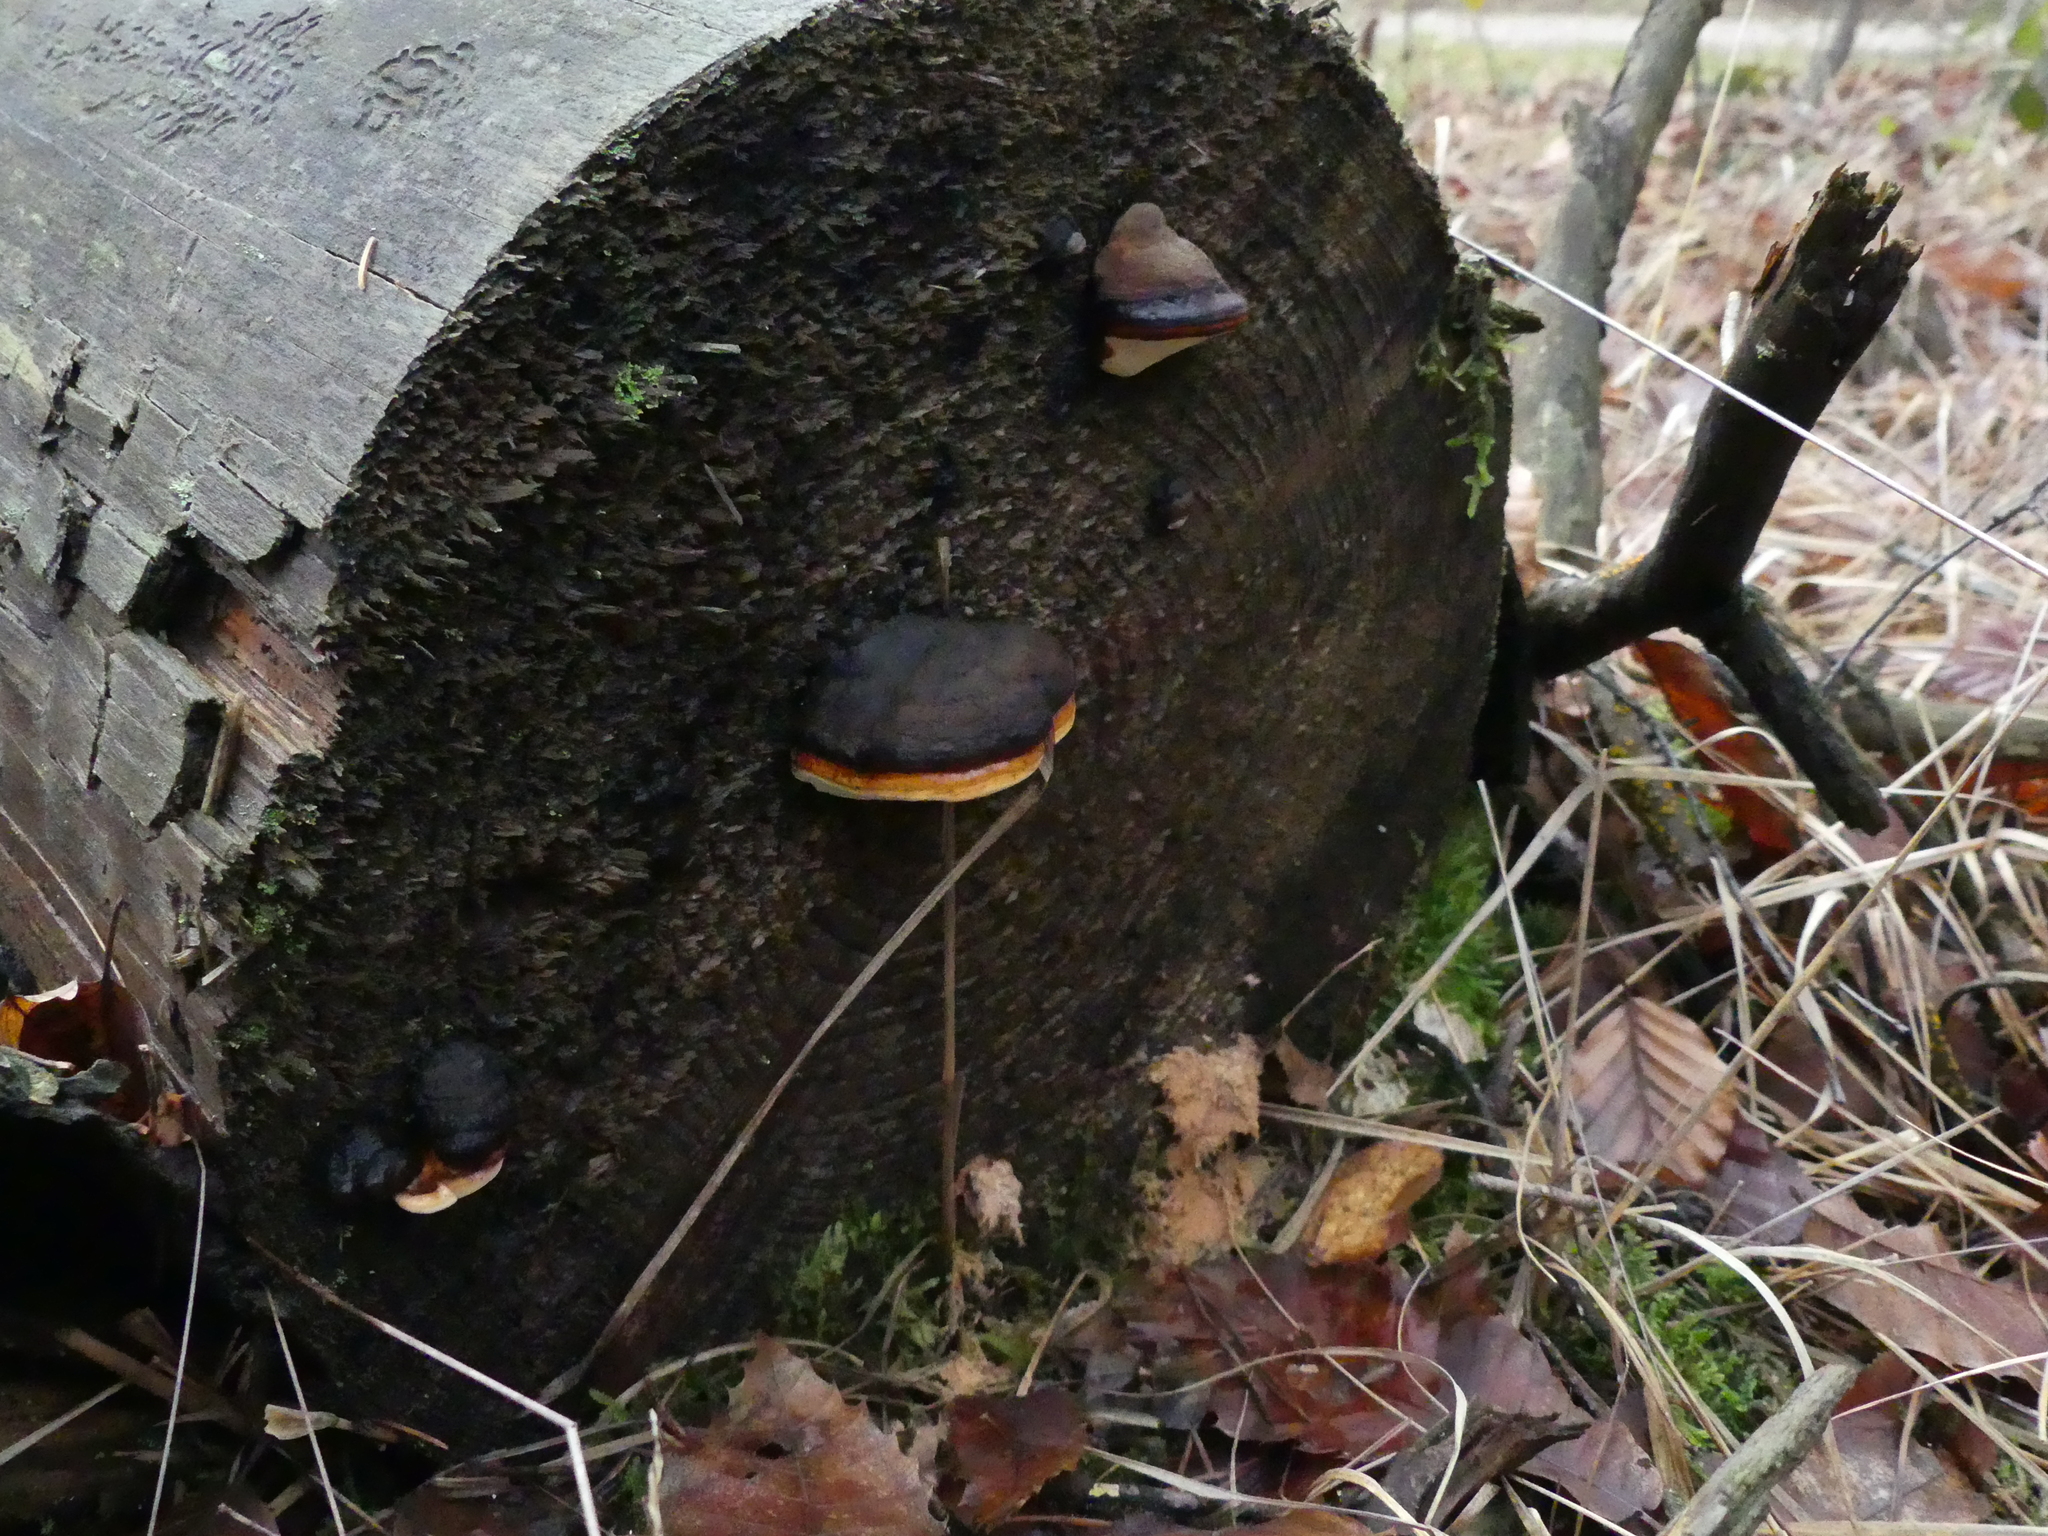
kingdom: Fungi
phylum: Basidiomycota
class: Agaricomycetes
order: Polyporales
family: Fomitopsidaceae
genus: Fomitopsis
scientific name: Fomitopsis pinicola
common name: Red-belted bracket
